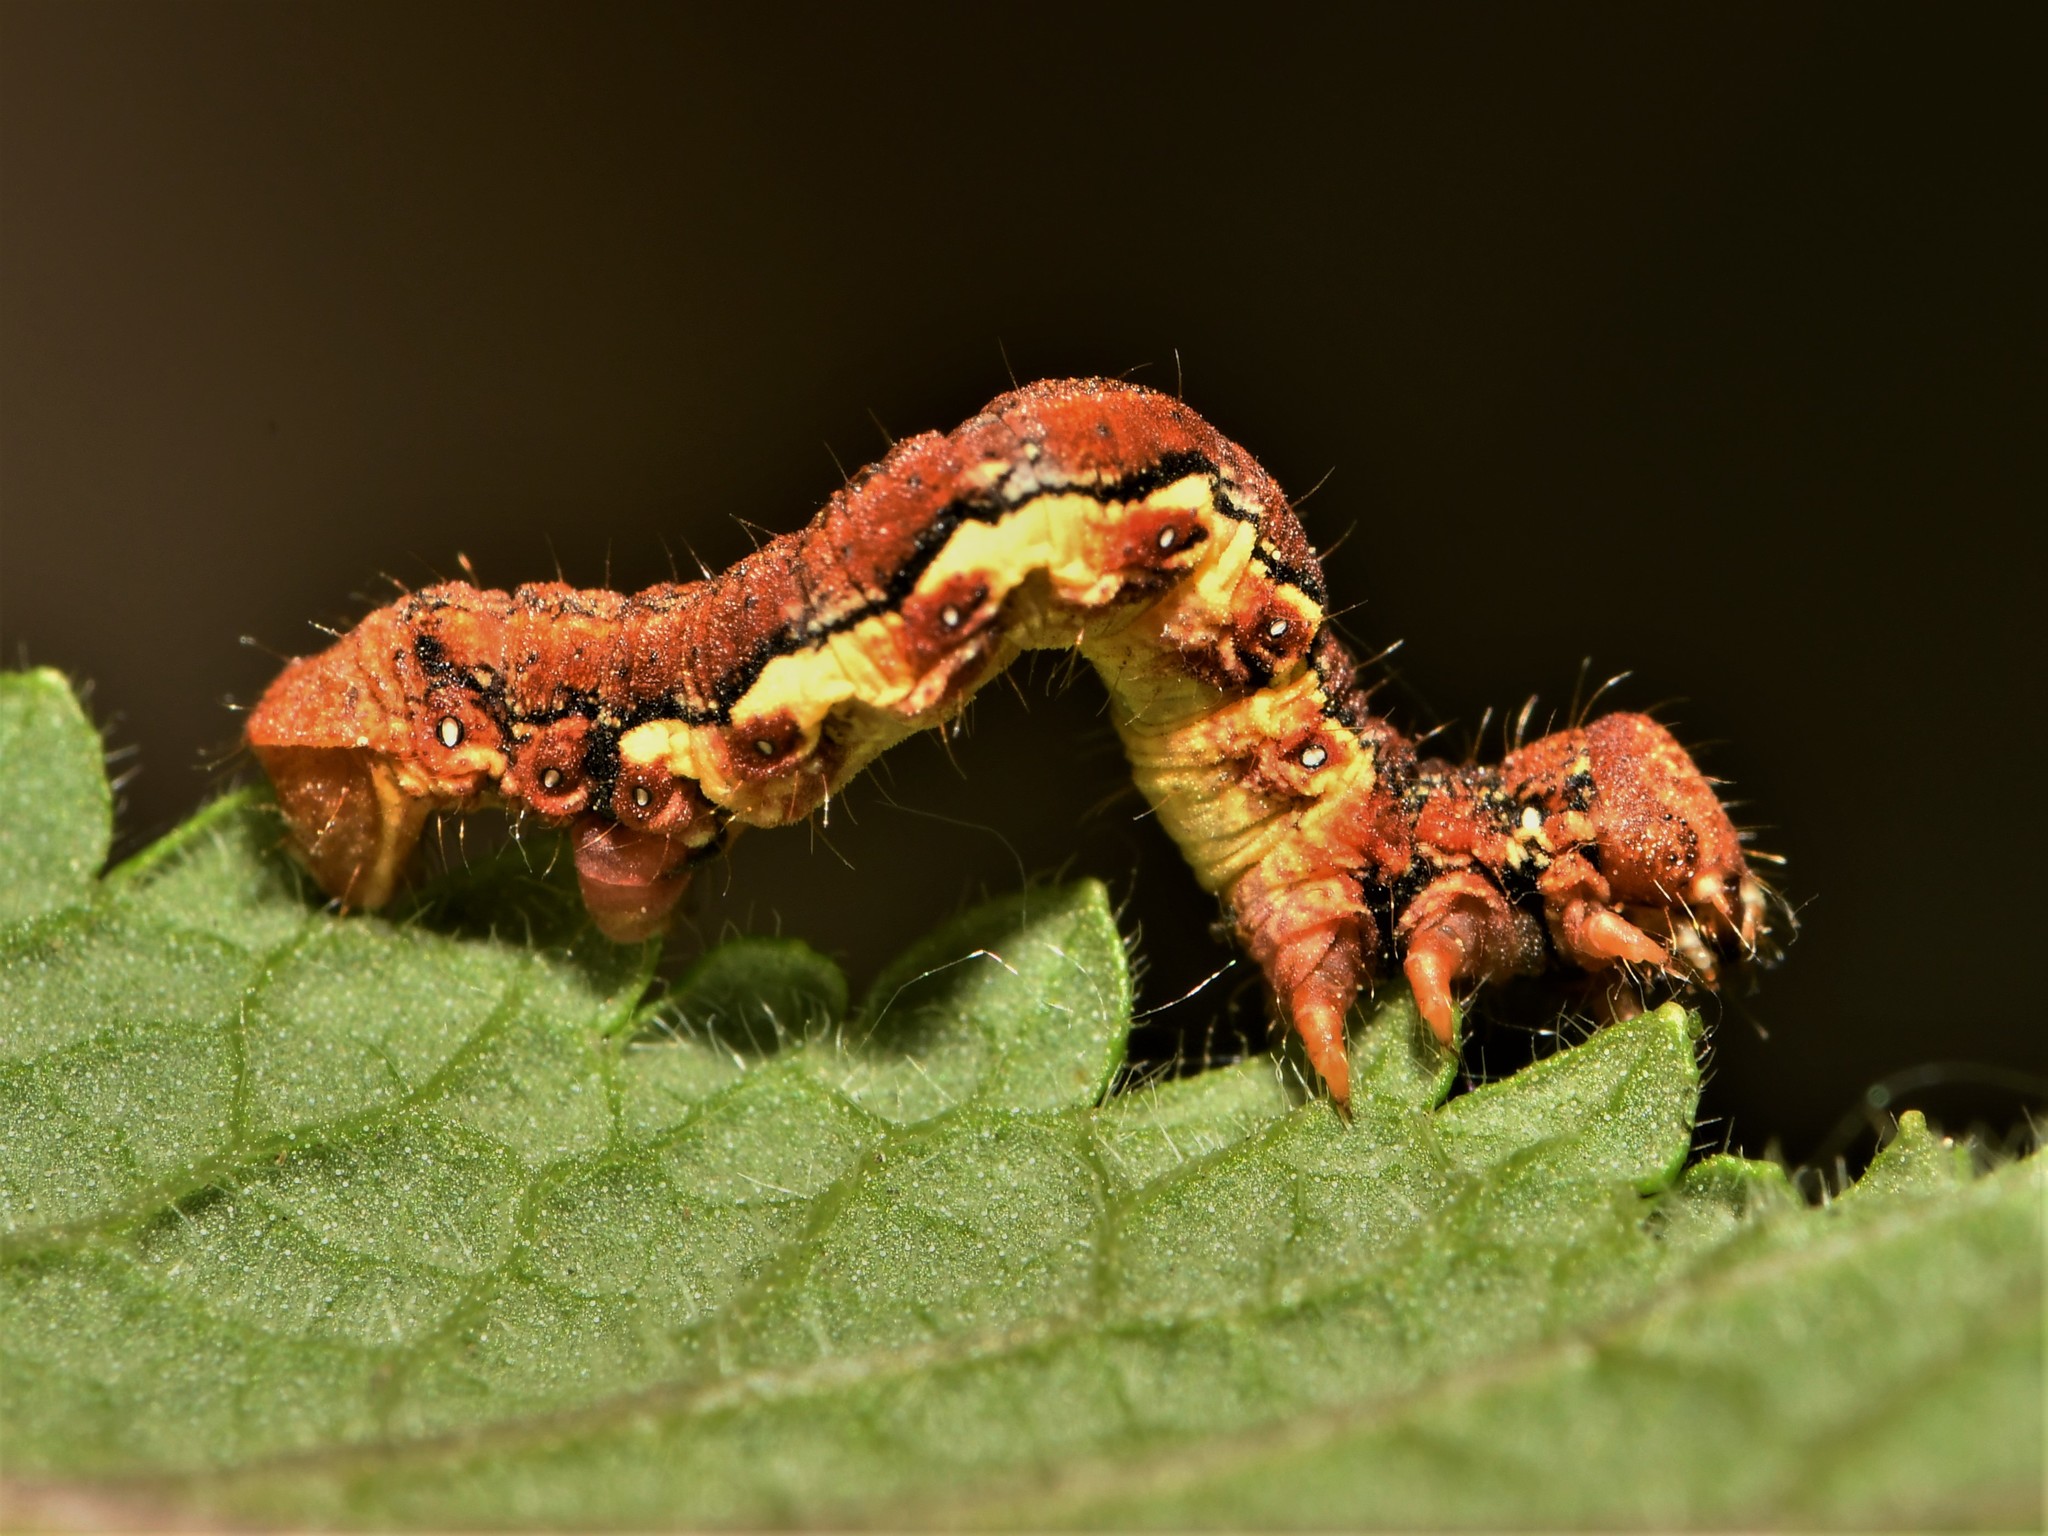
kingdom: Animalia
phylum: Arthropoda
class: Insecta
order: Lepidoptera
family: Geometridae
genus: Erannis
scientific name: Erannis defoliaria
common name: Mottled umber
